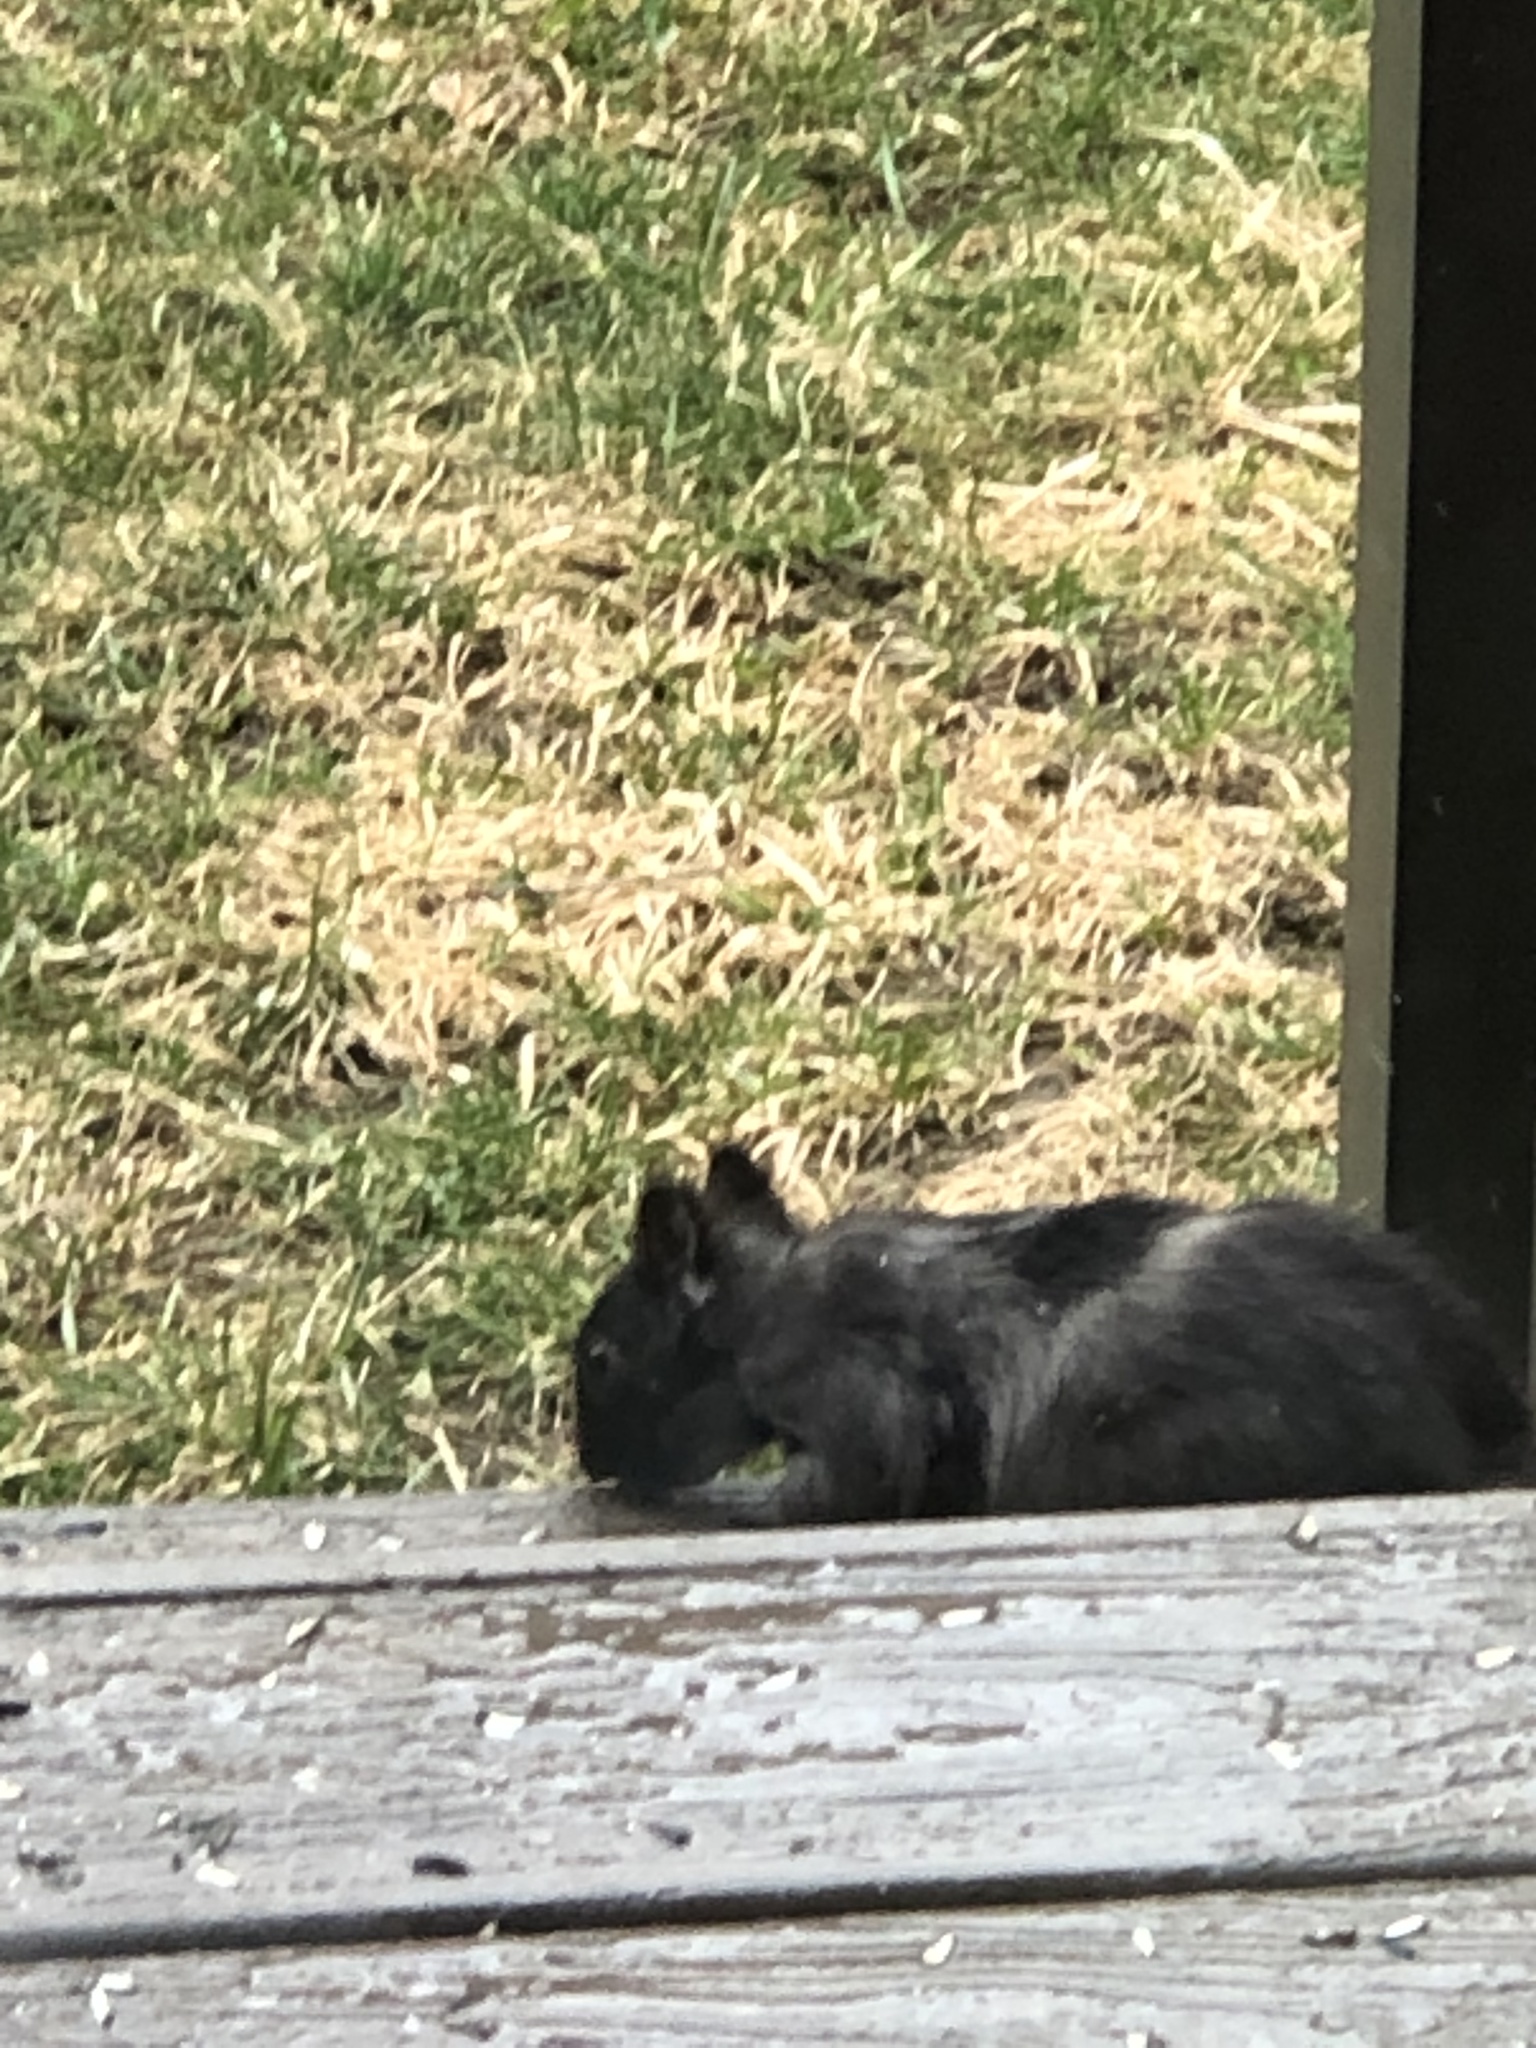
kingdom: Animalia
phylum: Chordata
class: Mammalia
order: Rodentia
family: Sciuridae
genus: Sciurus
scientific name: Sciurus carolinensis
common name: Eastern gray squirrel
